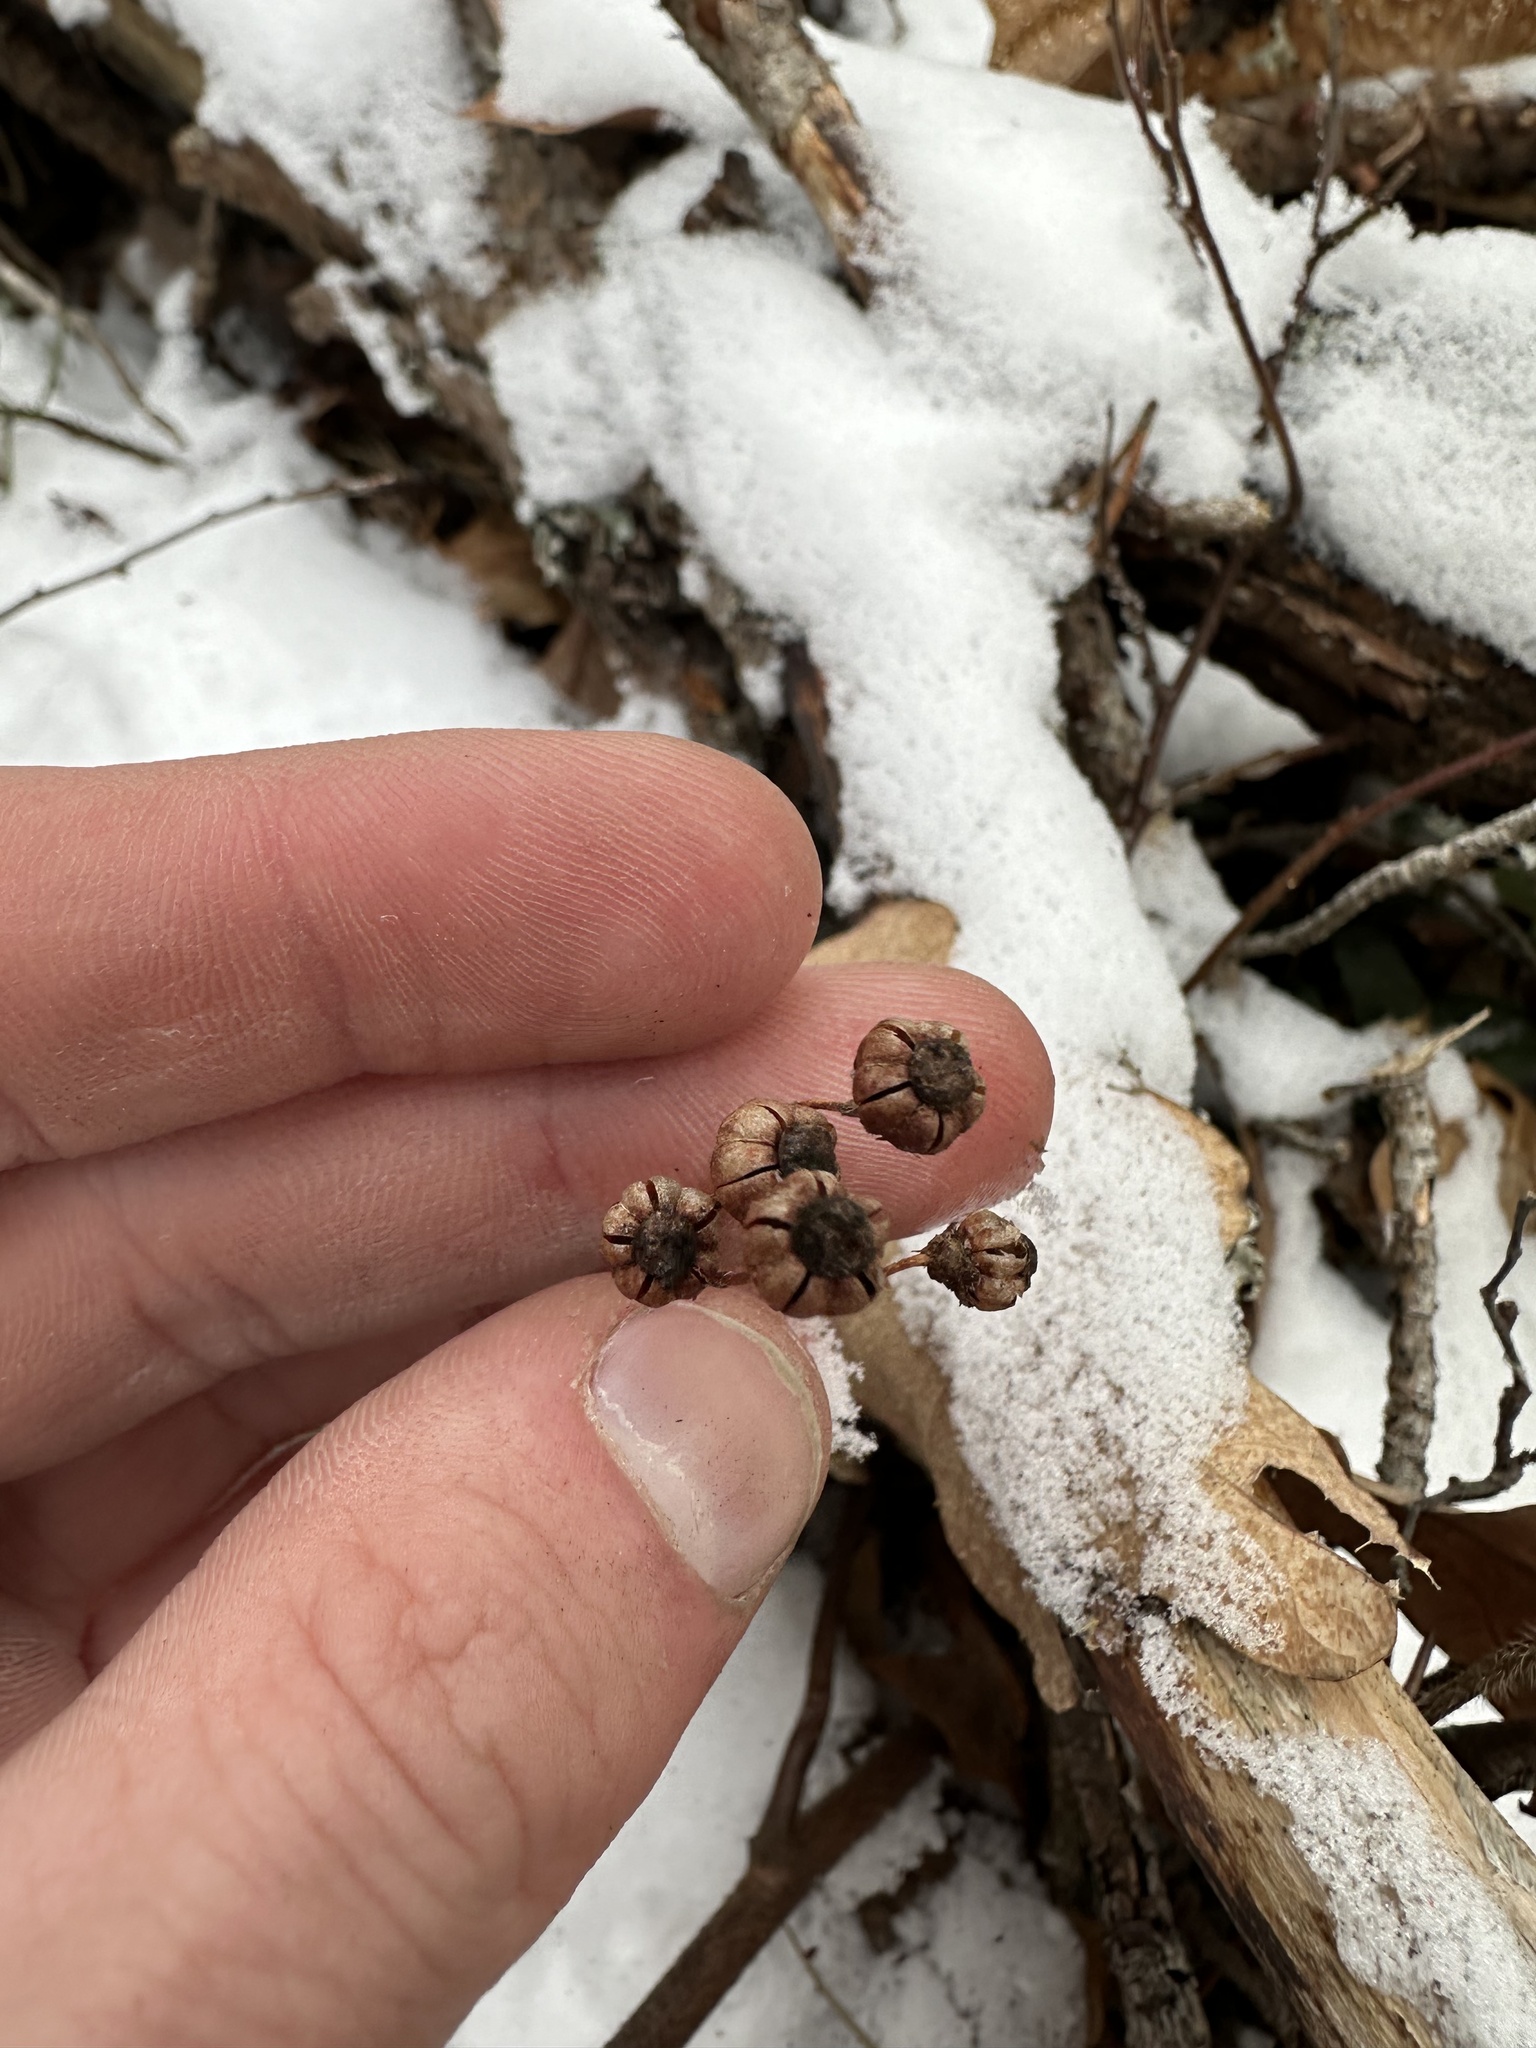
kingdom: Plantae
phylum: Tracheophyta
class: Magnoliopsida
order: Ericales
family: Ericaceae
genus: Chimaphila
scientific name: Chimaphila umbellata
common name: Pipsissewa
